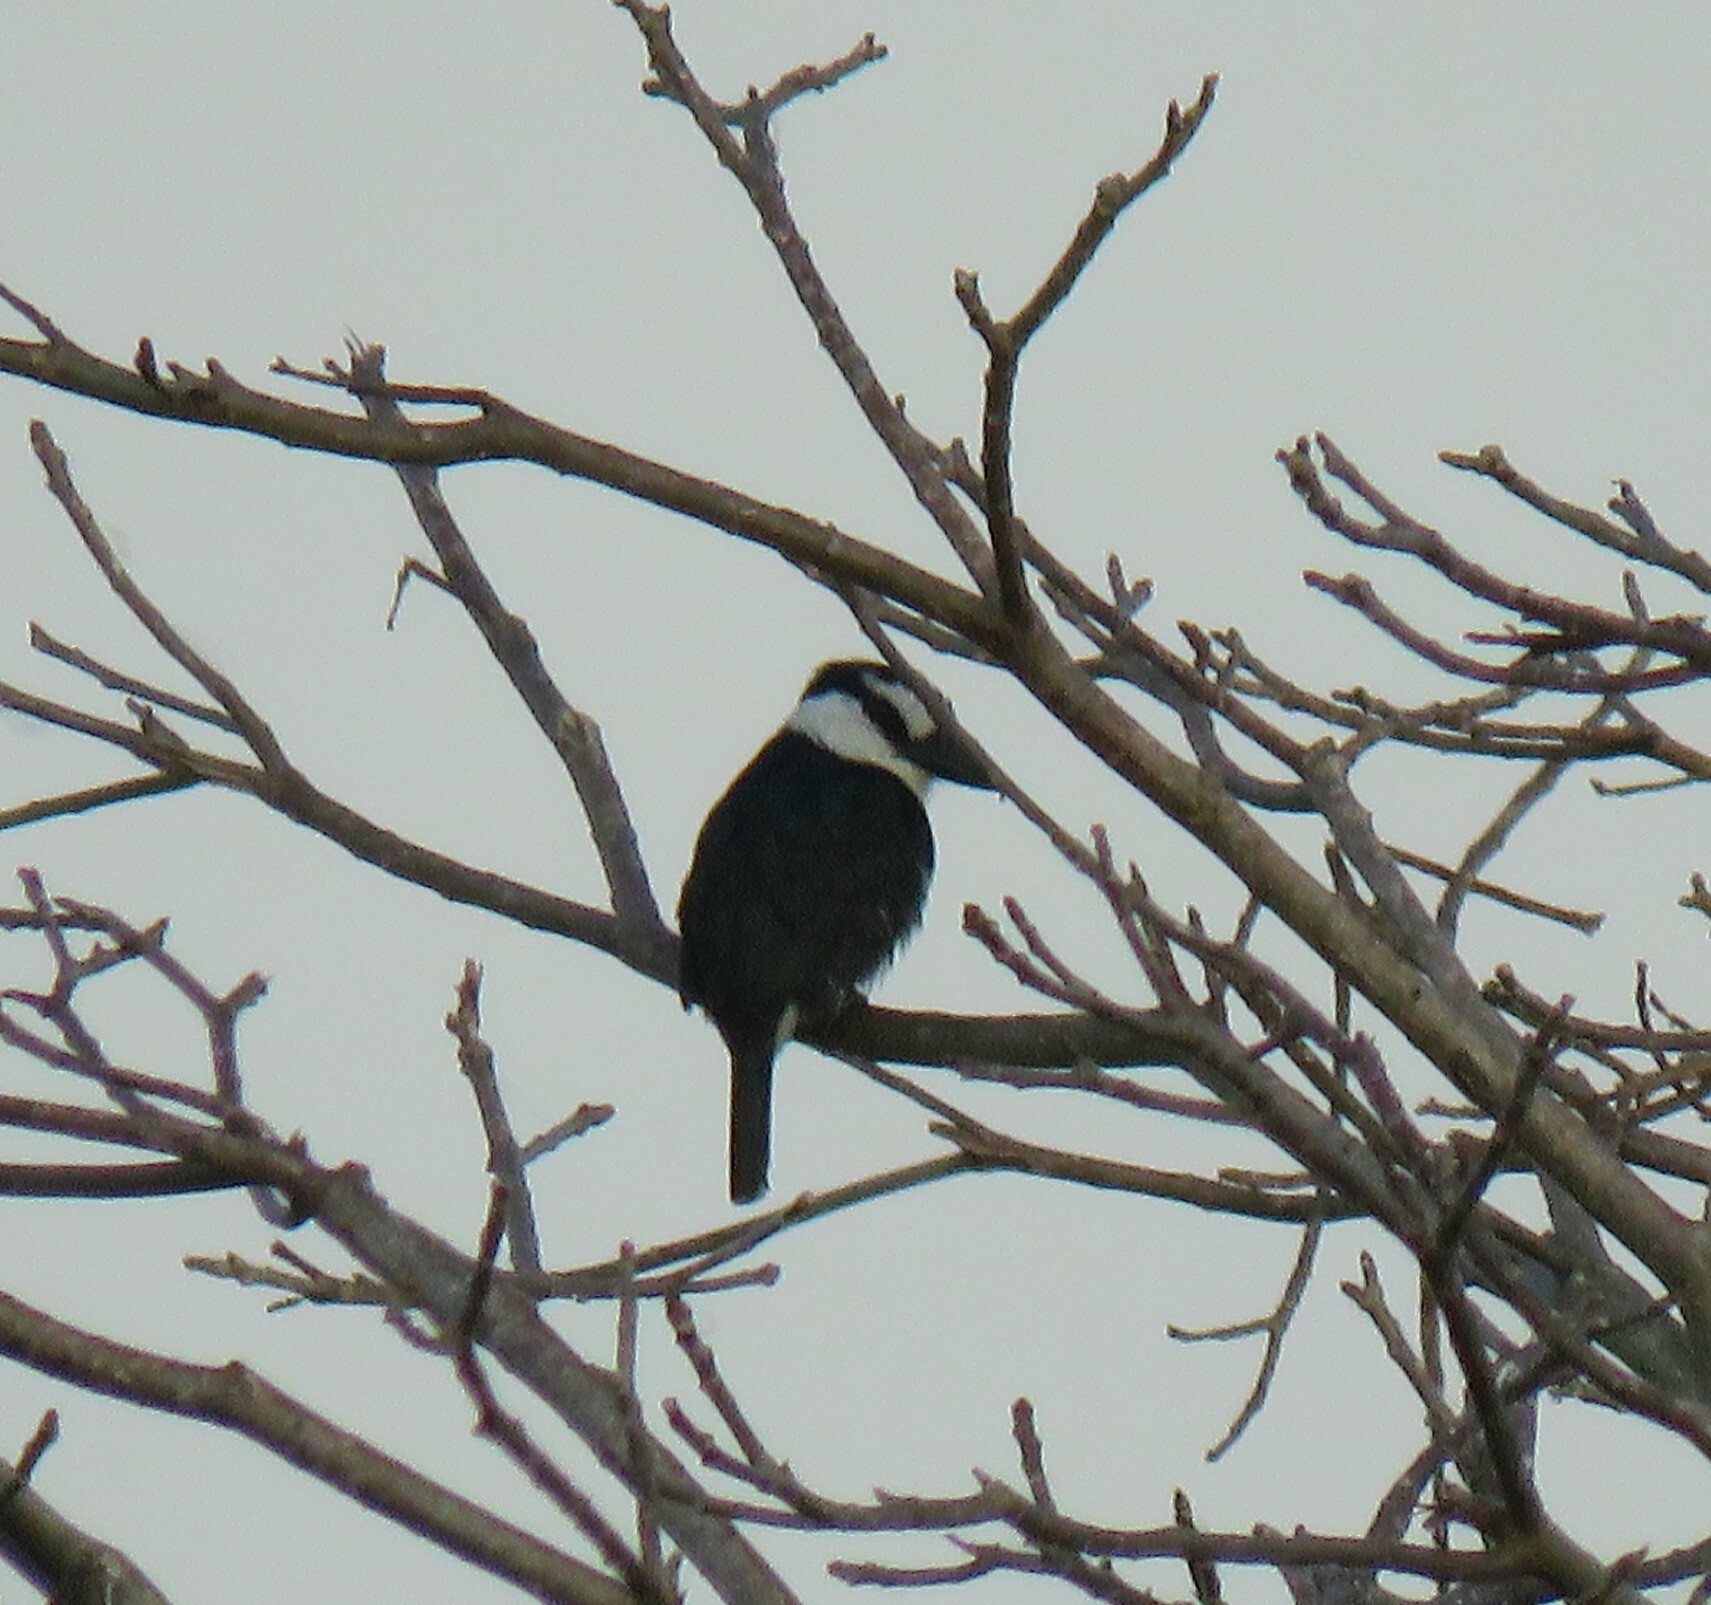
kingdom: Animalia
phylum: Chordata
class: Aves
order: Piciformes
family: Bucconidae
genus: Notharchus
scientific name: Notharchus hyperrhynchus
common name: White-necked puffbird
